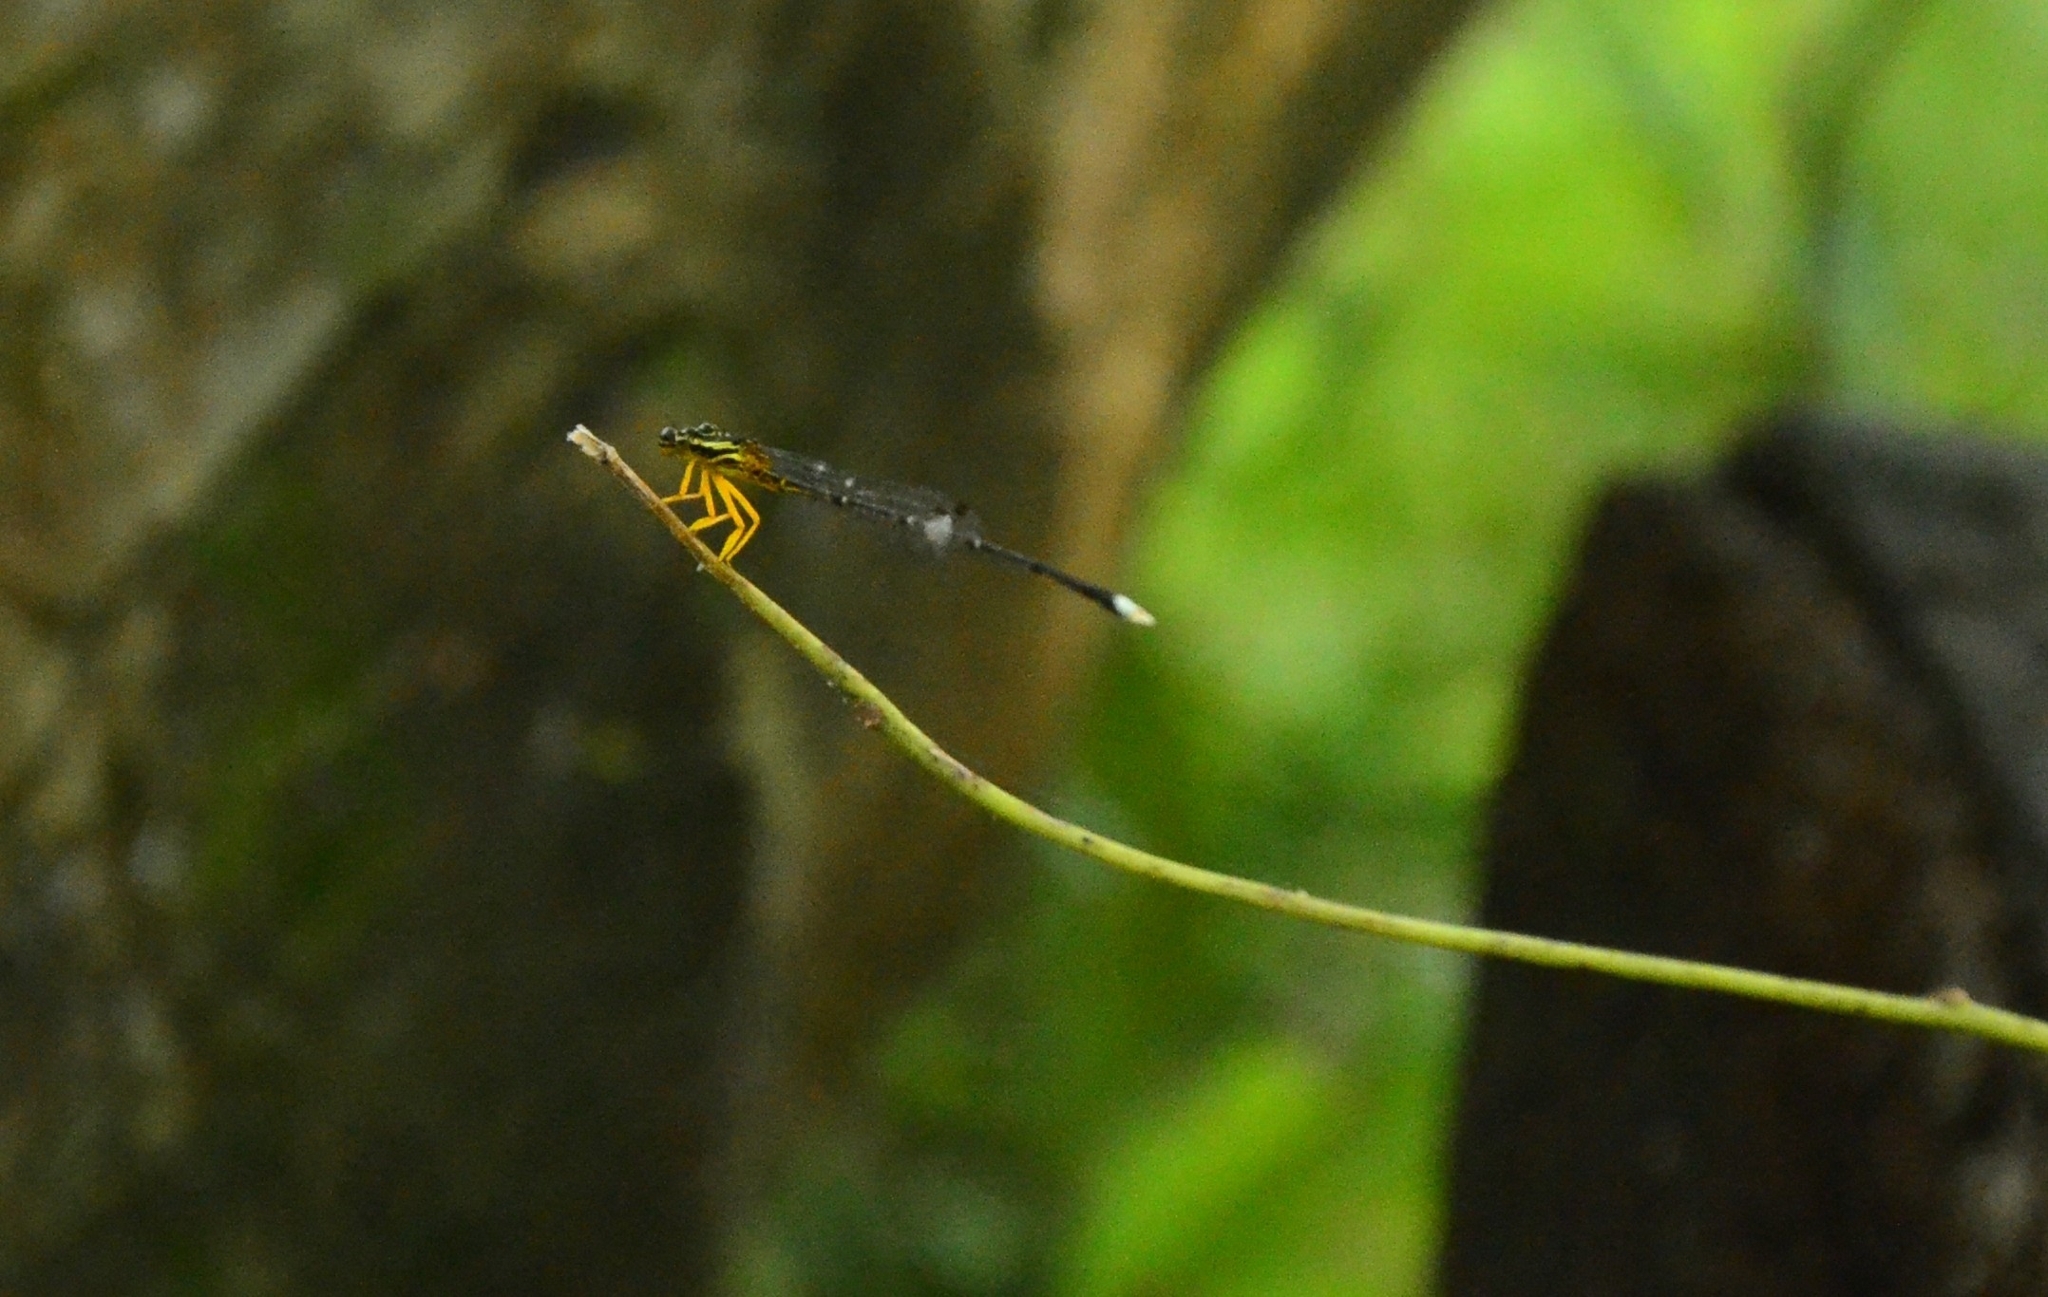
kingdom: Animalia
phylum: Arthropoda
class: Insecta
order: Odonata
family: Platycnemididae
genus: Copera
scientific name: Copera marginipes
